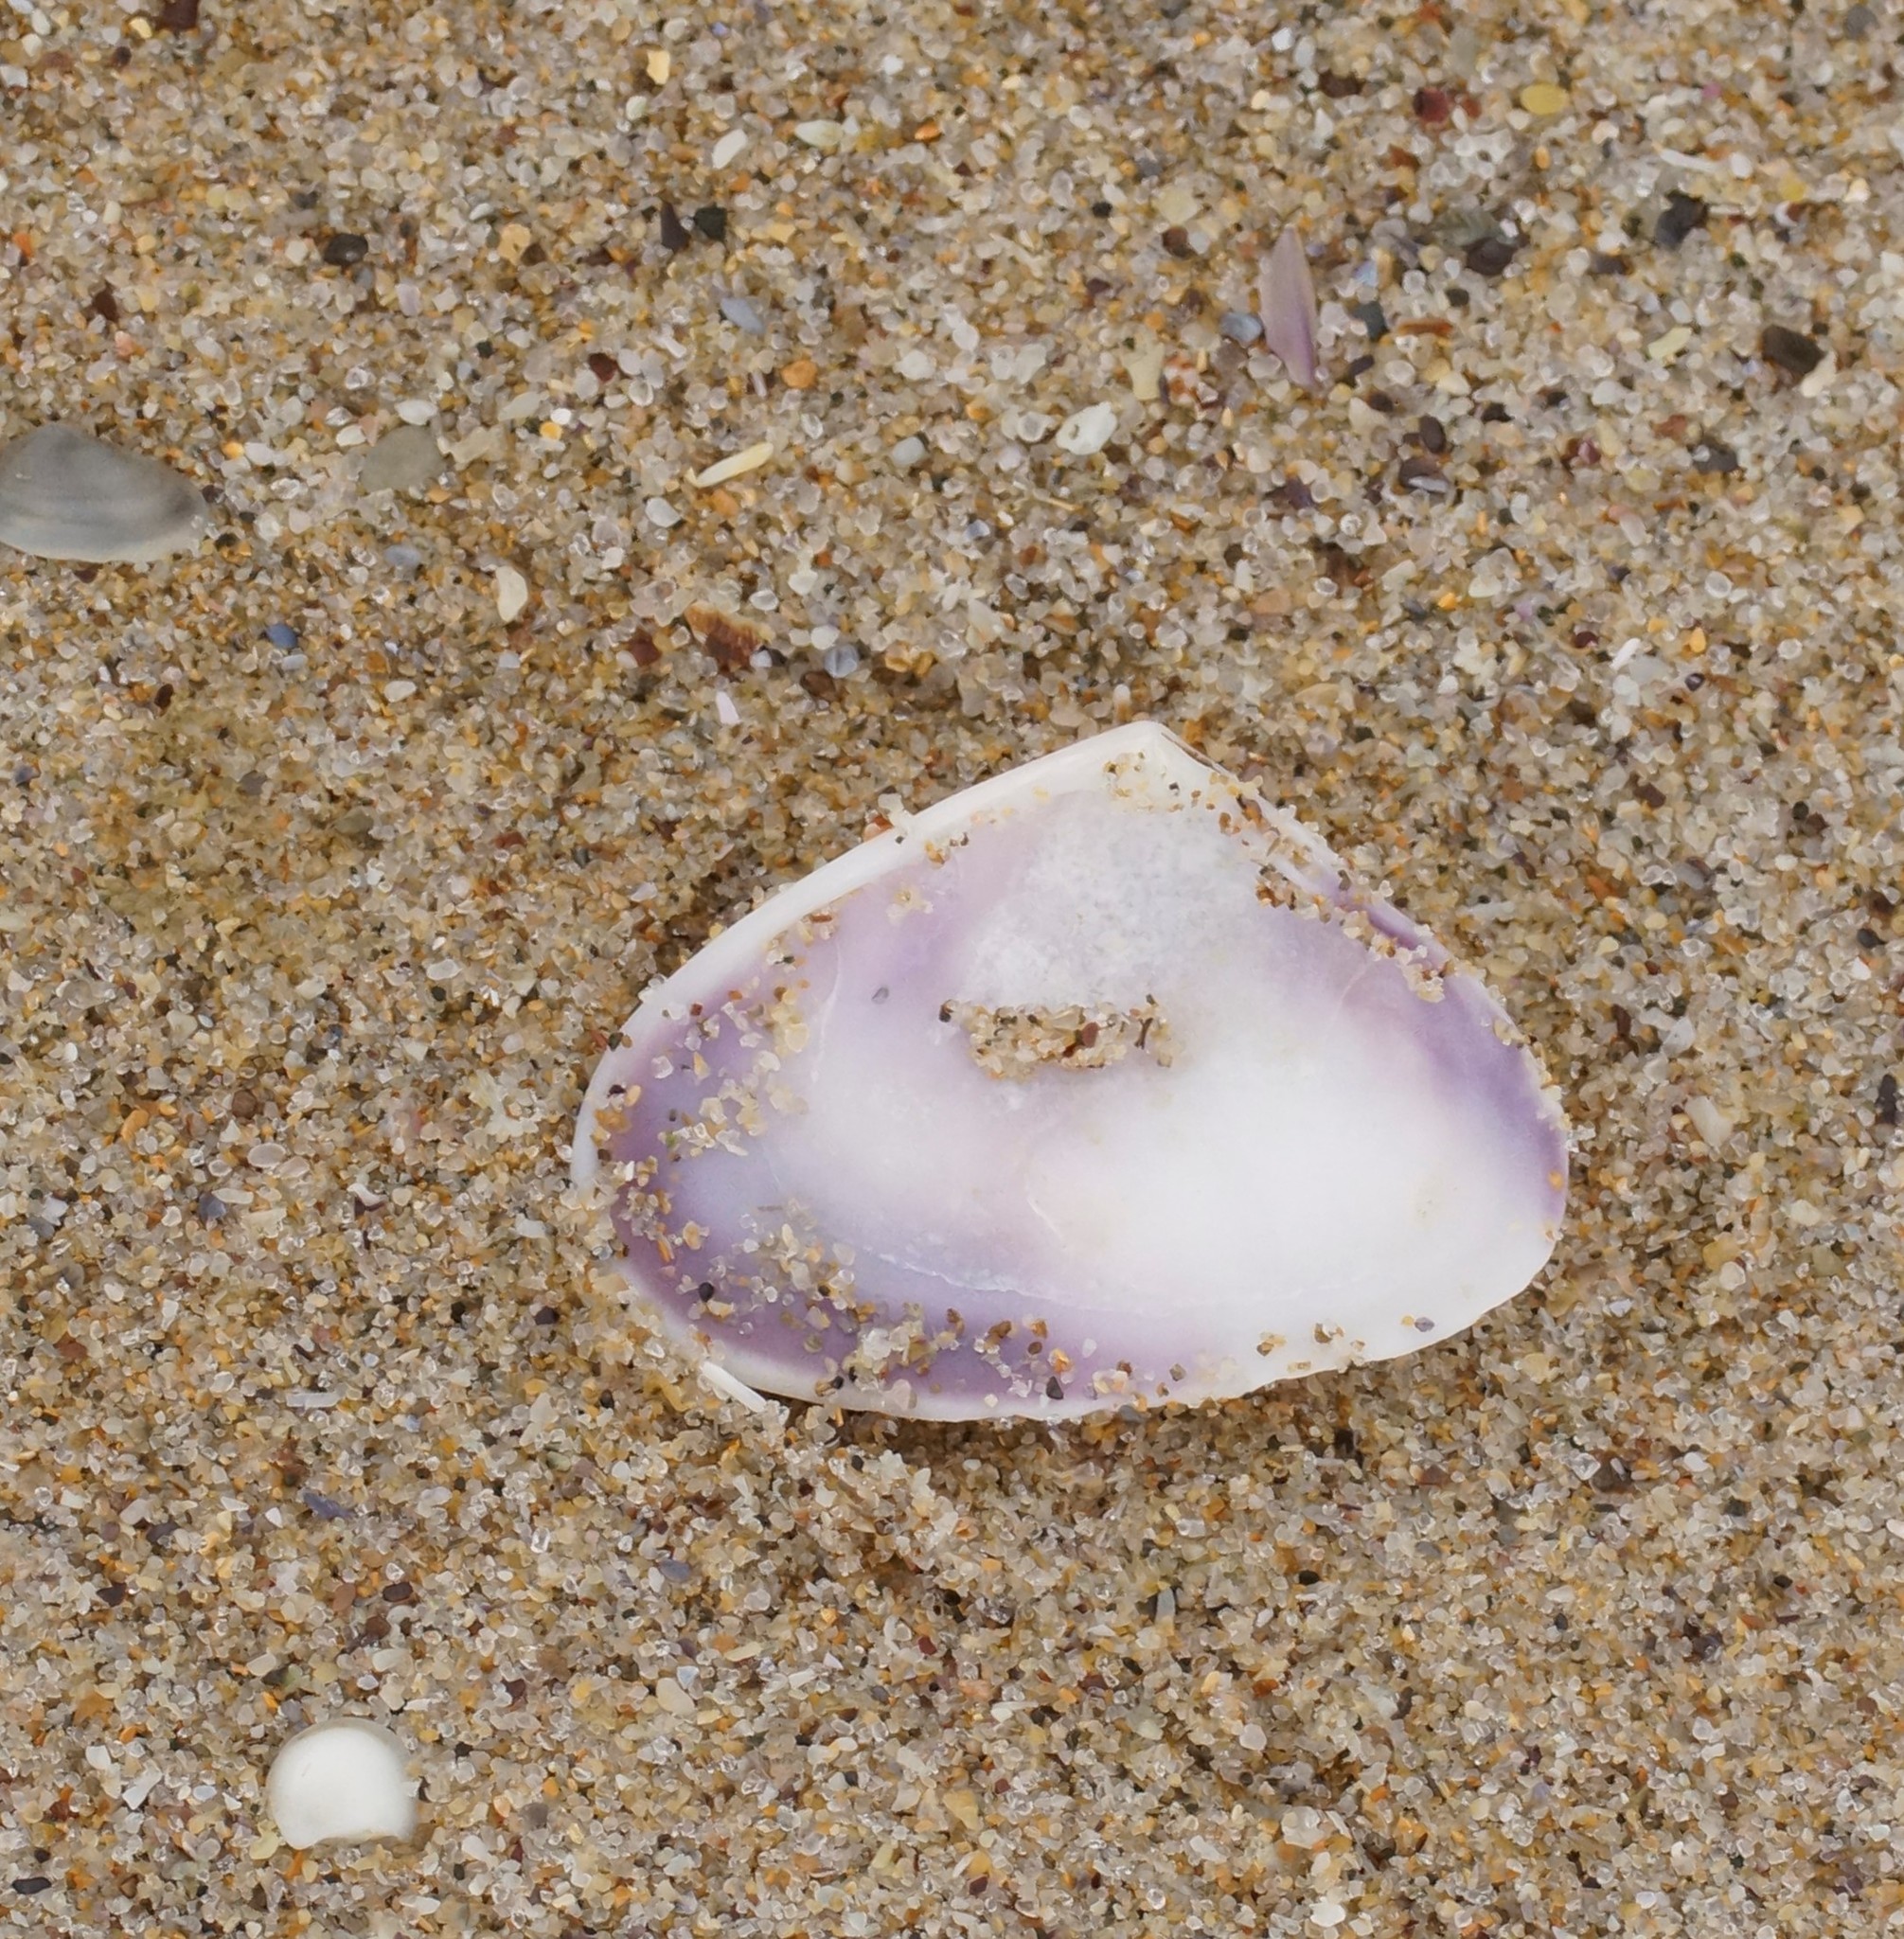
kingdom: Animalia
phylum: Mollusca
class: Bivalvia
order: Cardiida
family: Donacidae
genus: Latona
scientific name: Latona deltoides
